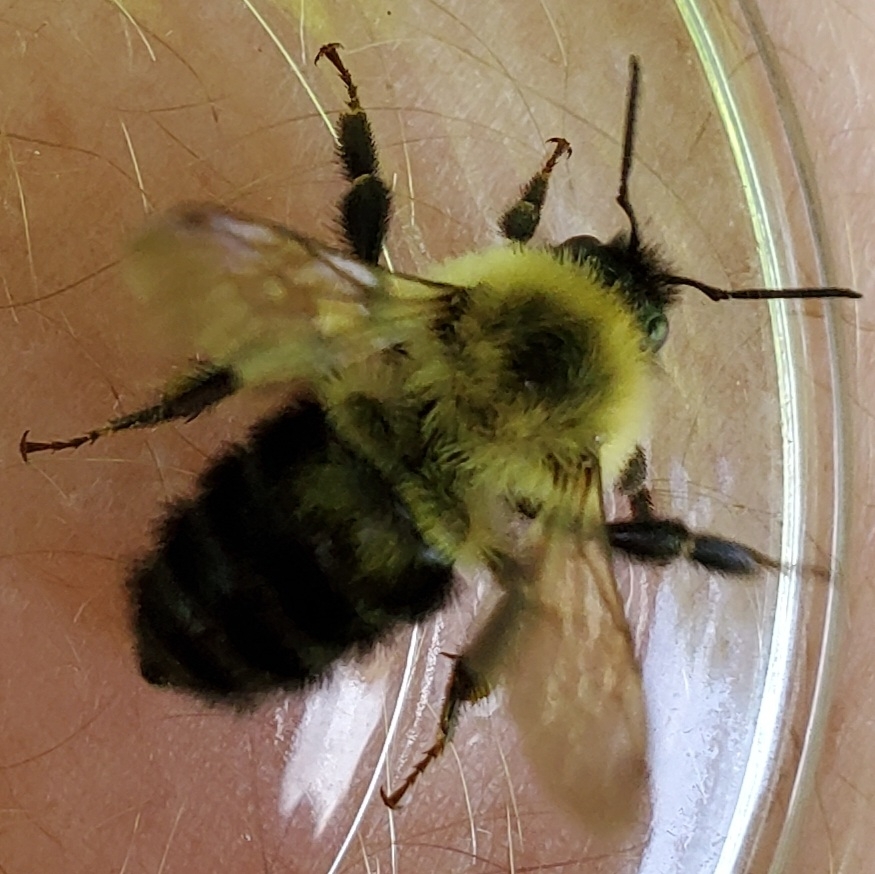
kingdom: Animalia
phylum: Arthropoda
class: Insecta
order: Hymenoptera
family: Apidae
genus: Bombus
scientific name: Bombus bimaculatus
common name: Two-spotted bumble bee
